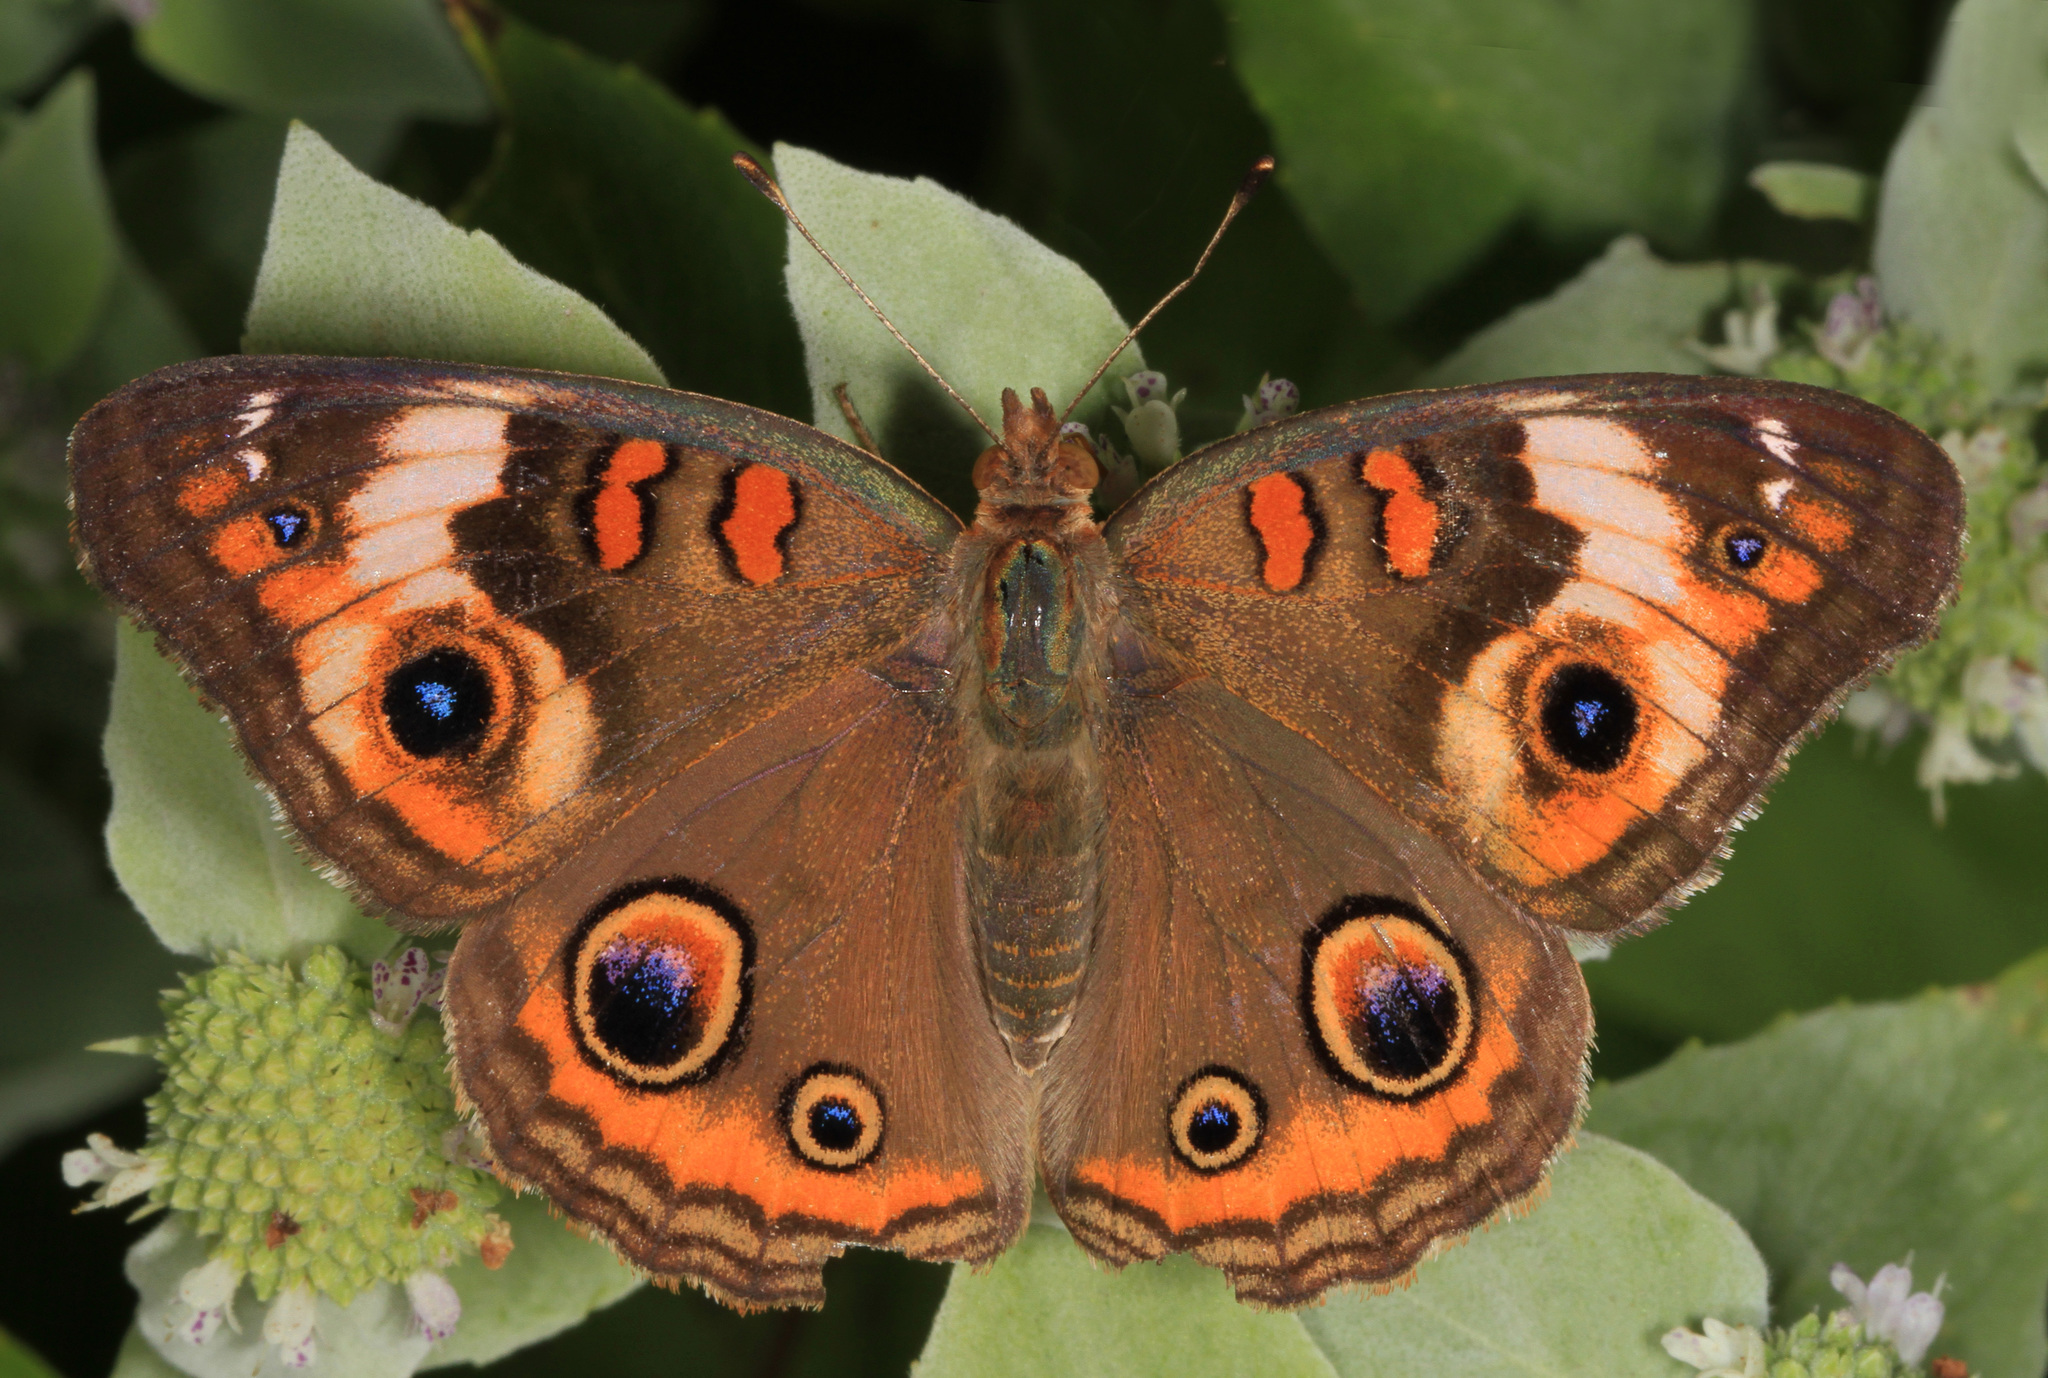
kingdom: Animalia
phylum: Arthropoda
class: Insecta
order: Lepidoptera
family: Nymphalidae
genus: Junonia
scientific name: Junonia coenia
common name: Common buckeye
